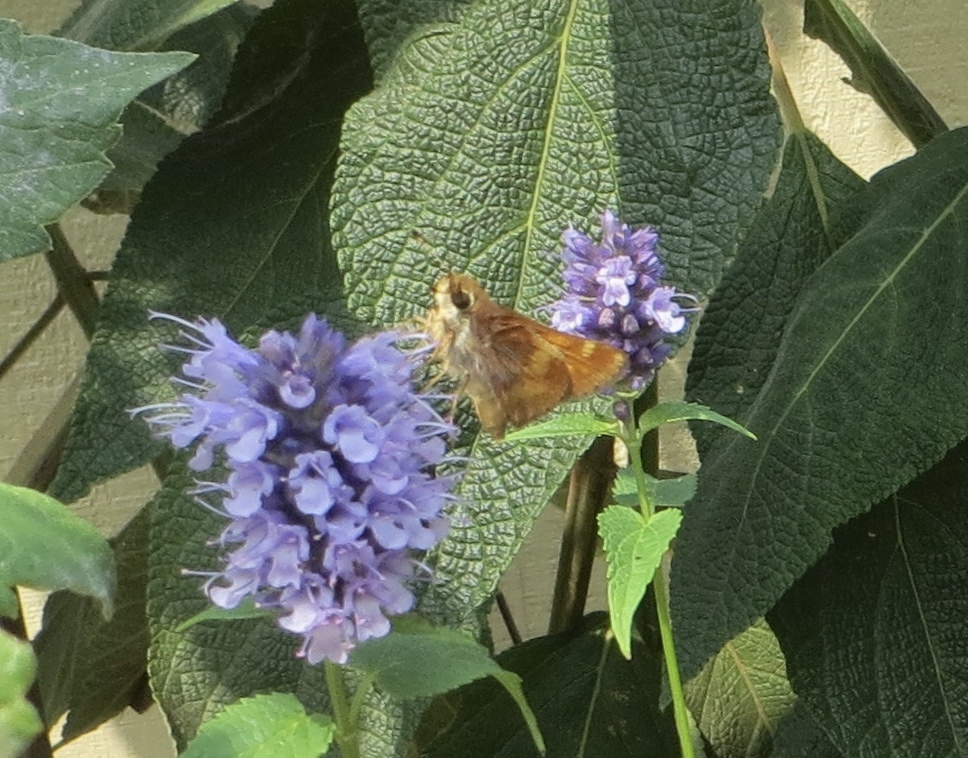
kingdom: Animalia
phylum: Arthropoda
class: Insecta
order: Lepidoptera
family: Hesperiidae
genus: Lon
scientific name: Lon melane
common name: Umber skipper
